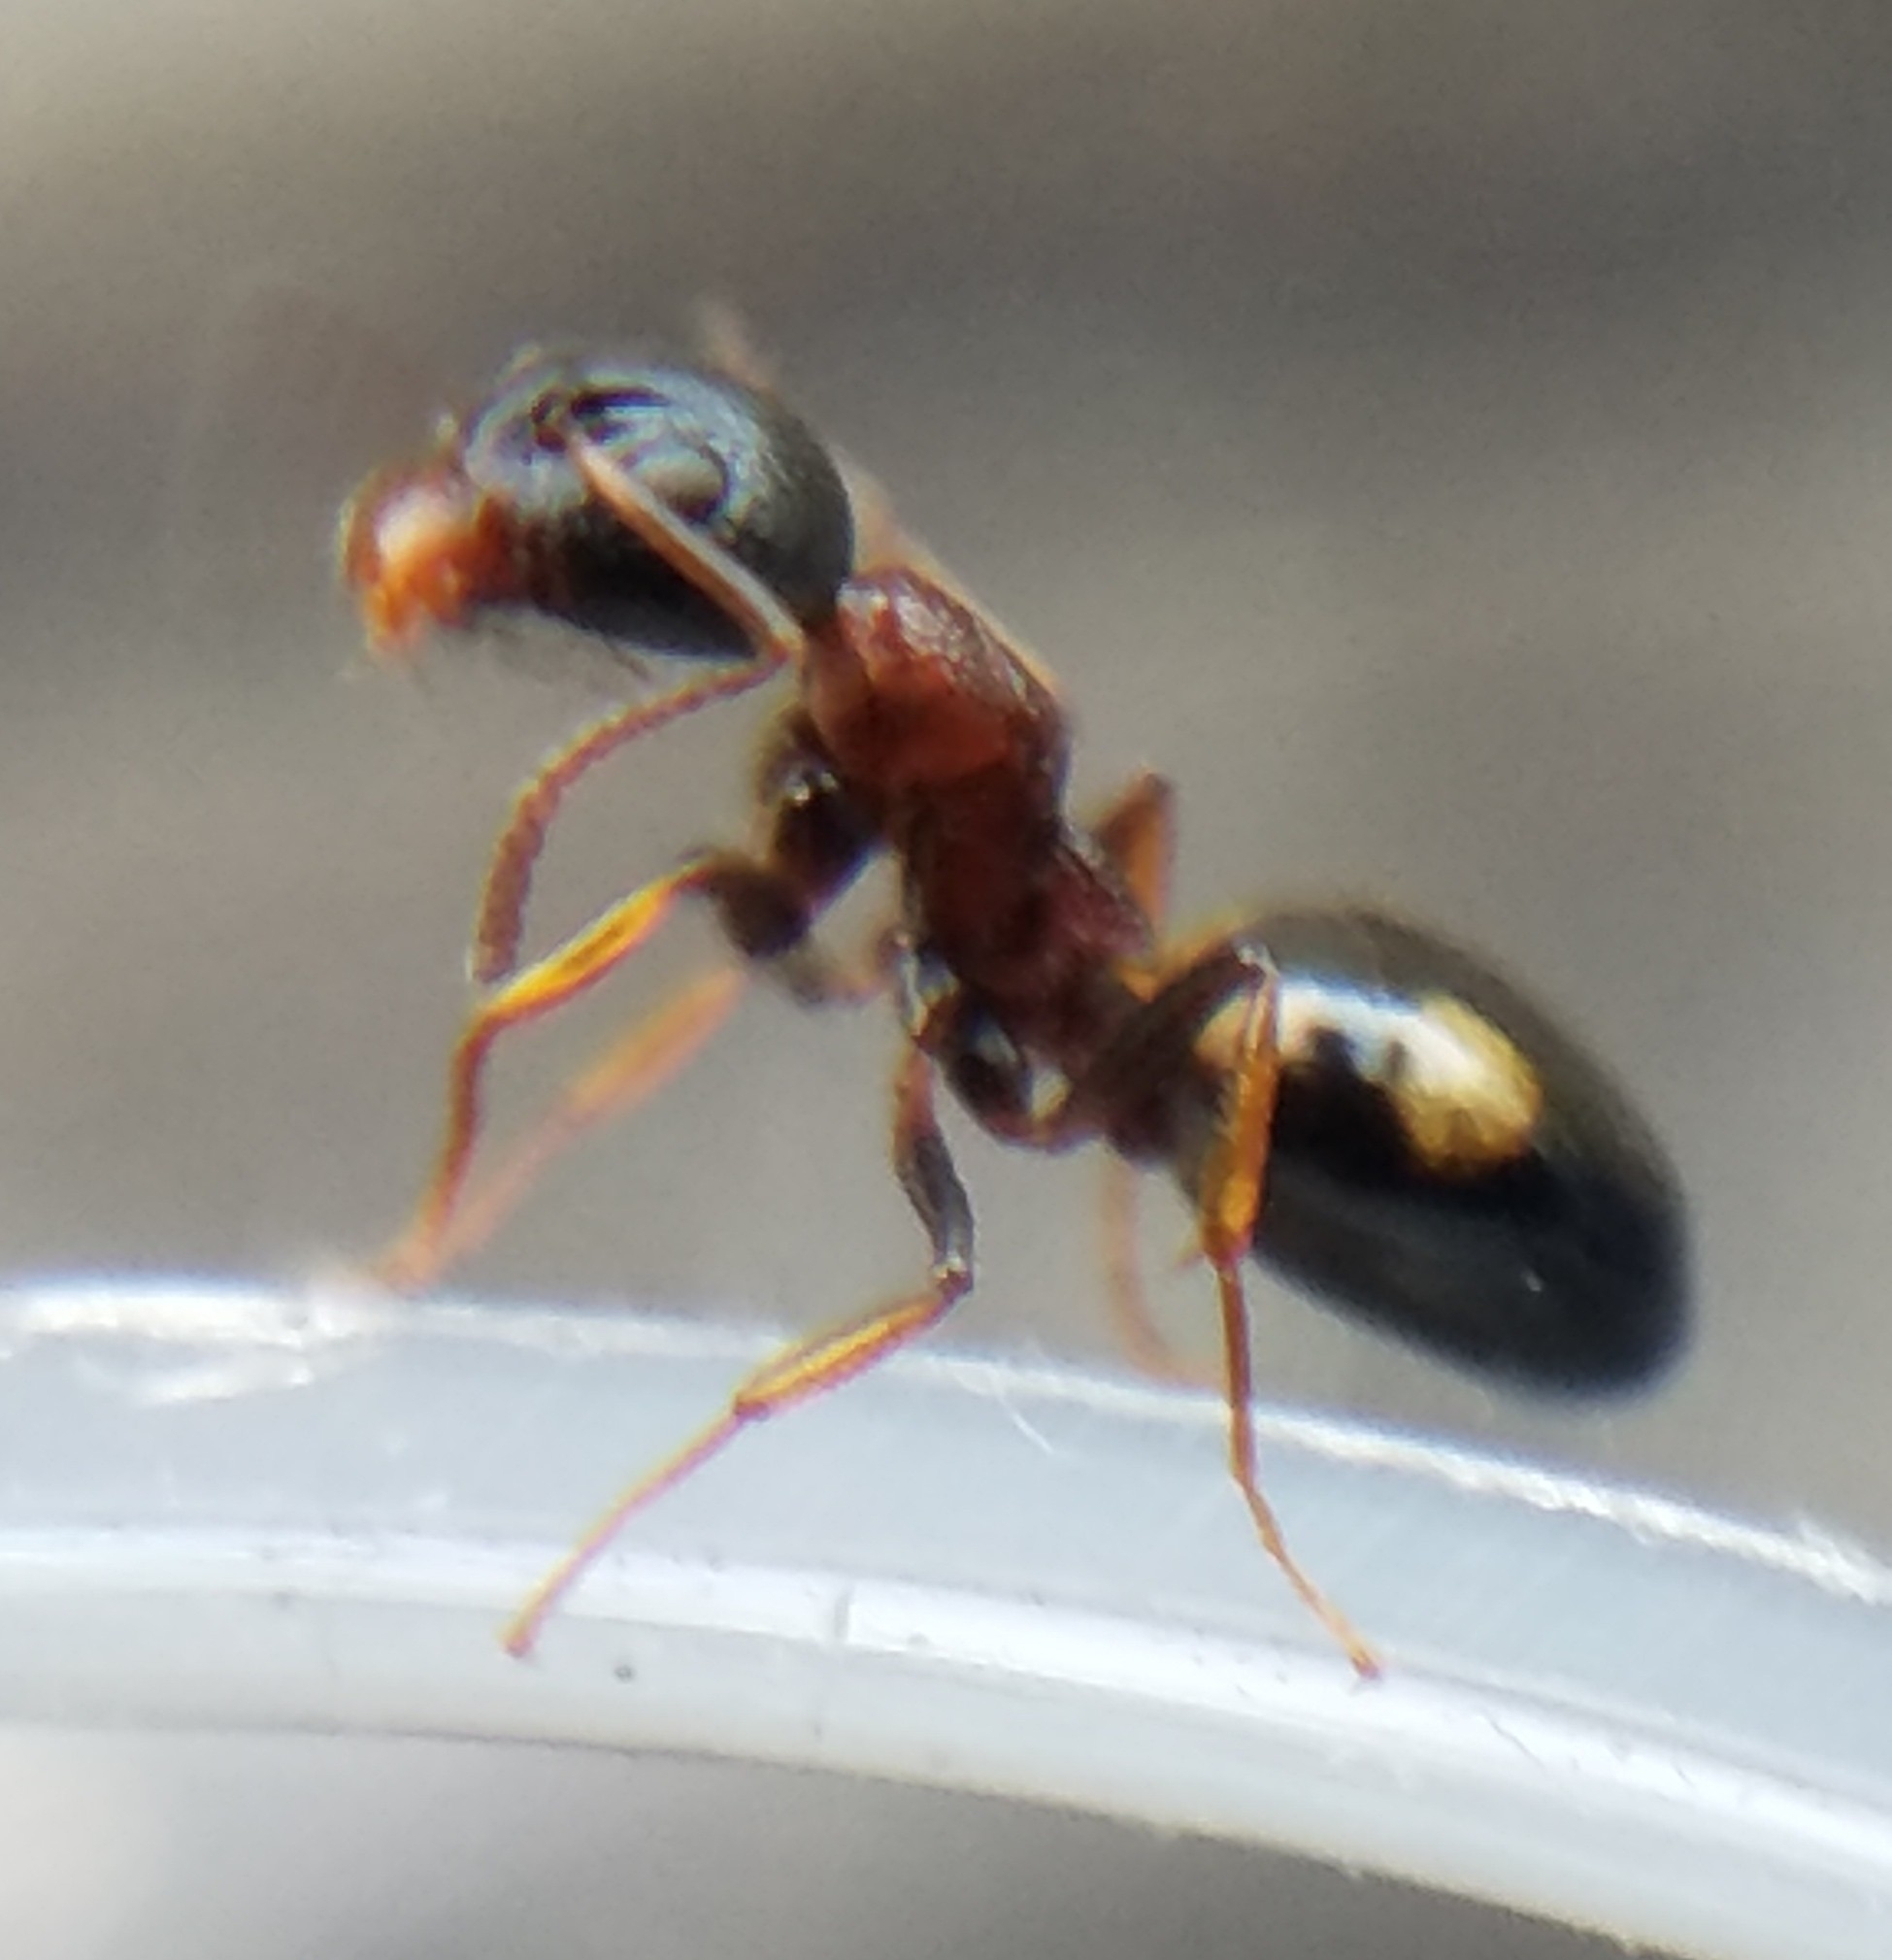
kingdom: Animalia
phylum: Arthropoda
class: Insecta
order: Hymenoptera
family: Formicidae
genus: Dolichoderus
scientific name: Dolichoderus quadripunctatus
